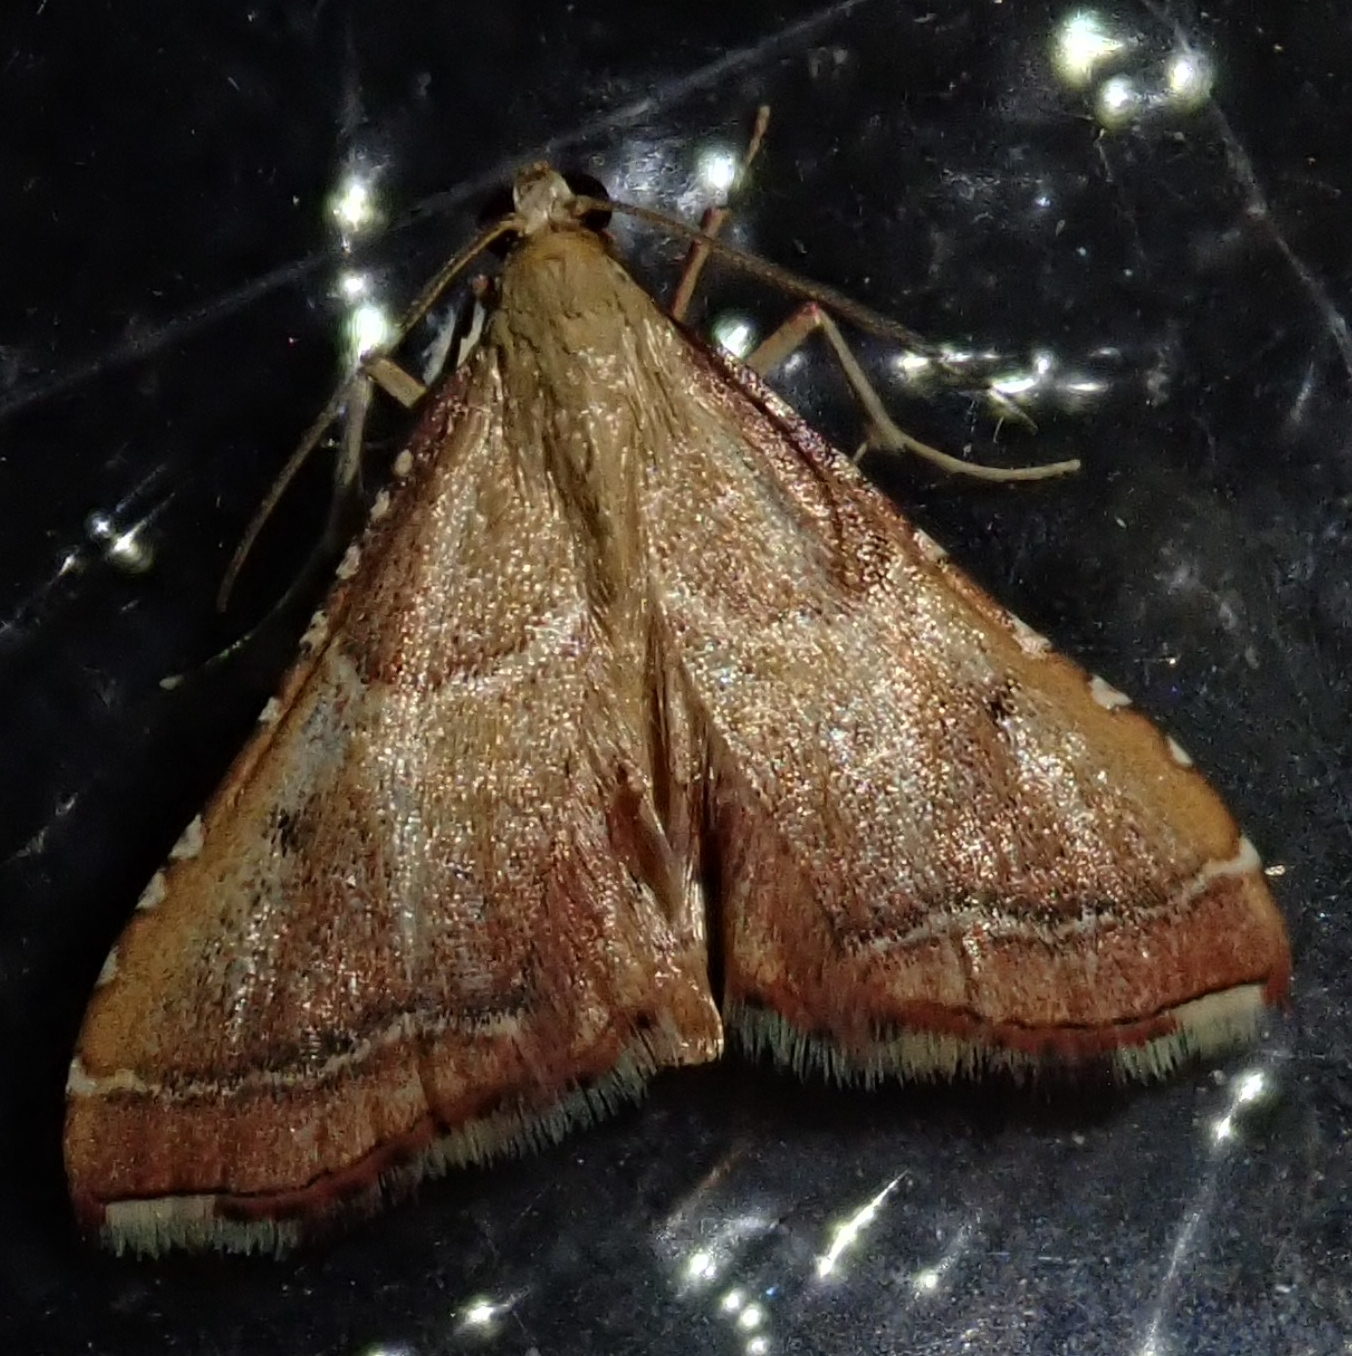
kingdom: Animalia
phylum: Arthropoda
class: Insecta
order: Lepidoptera
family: Pyralidae
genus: Endotricha
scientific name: Endotricha flammealis
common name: Rosy tabby
